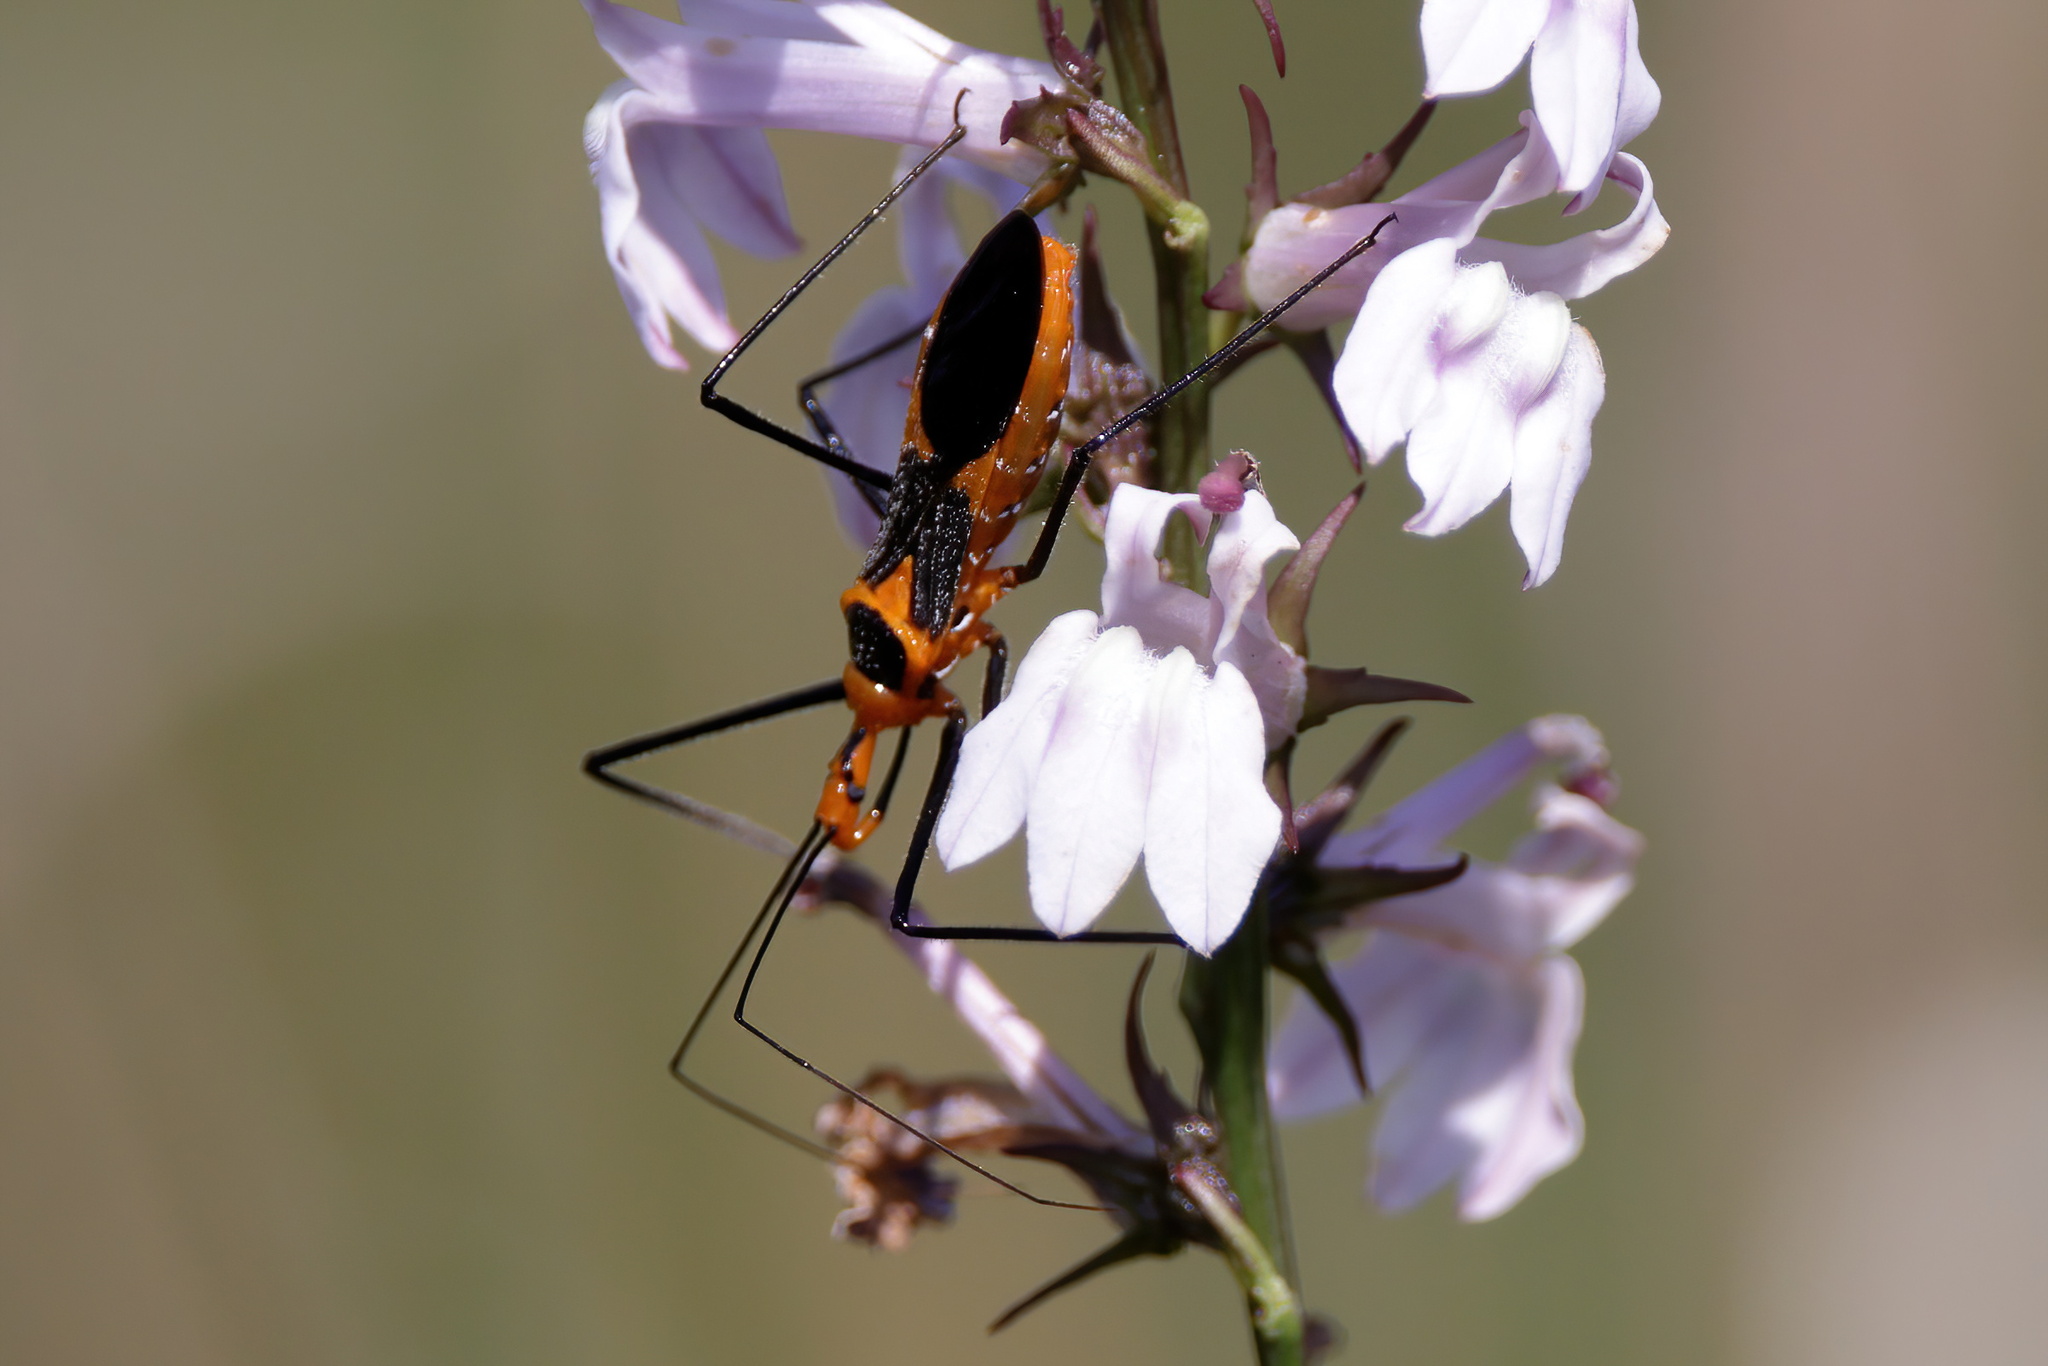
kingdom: Animalia
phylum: Arthropoda
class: Insecta
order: Hemiptera
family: Reduviidae
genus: Zelus
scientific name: Zelus longipes
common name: Milkweed assassin bug
